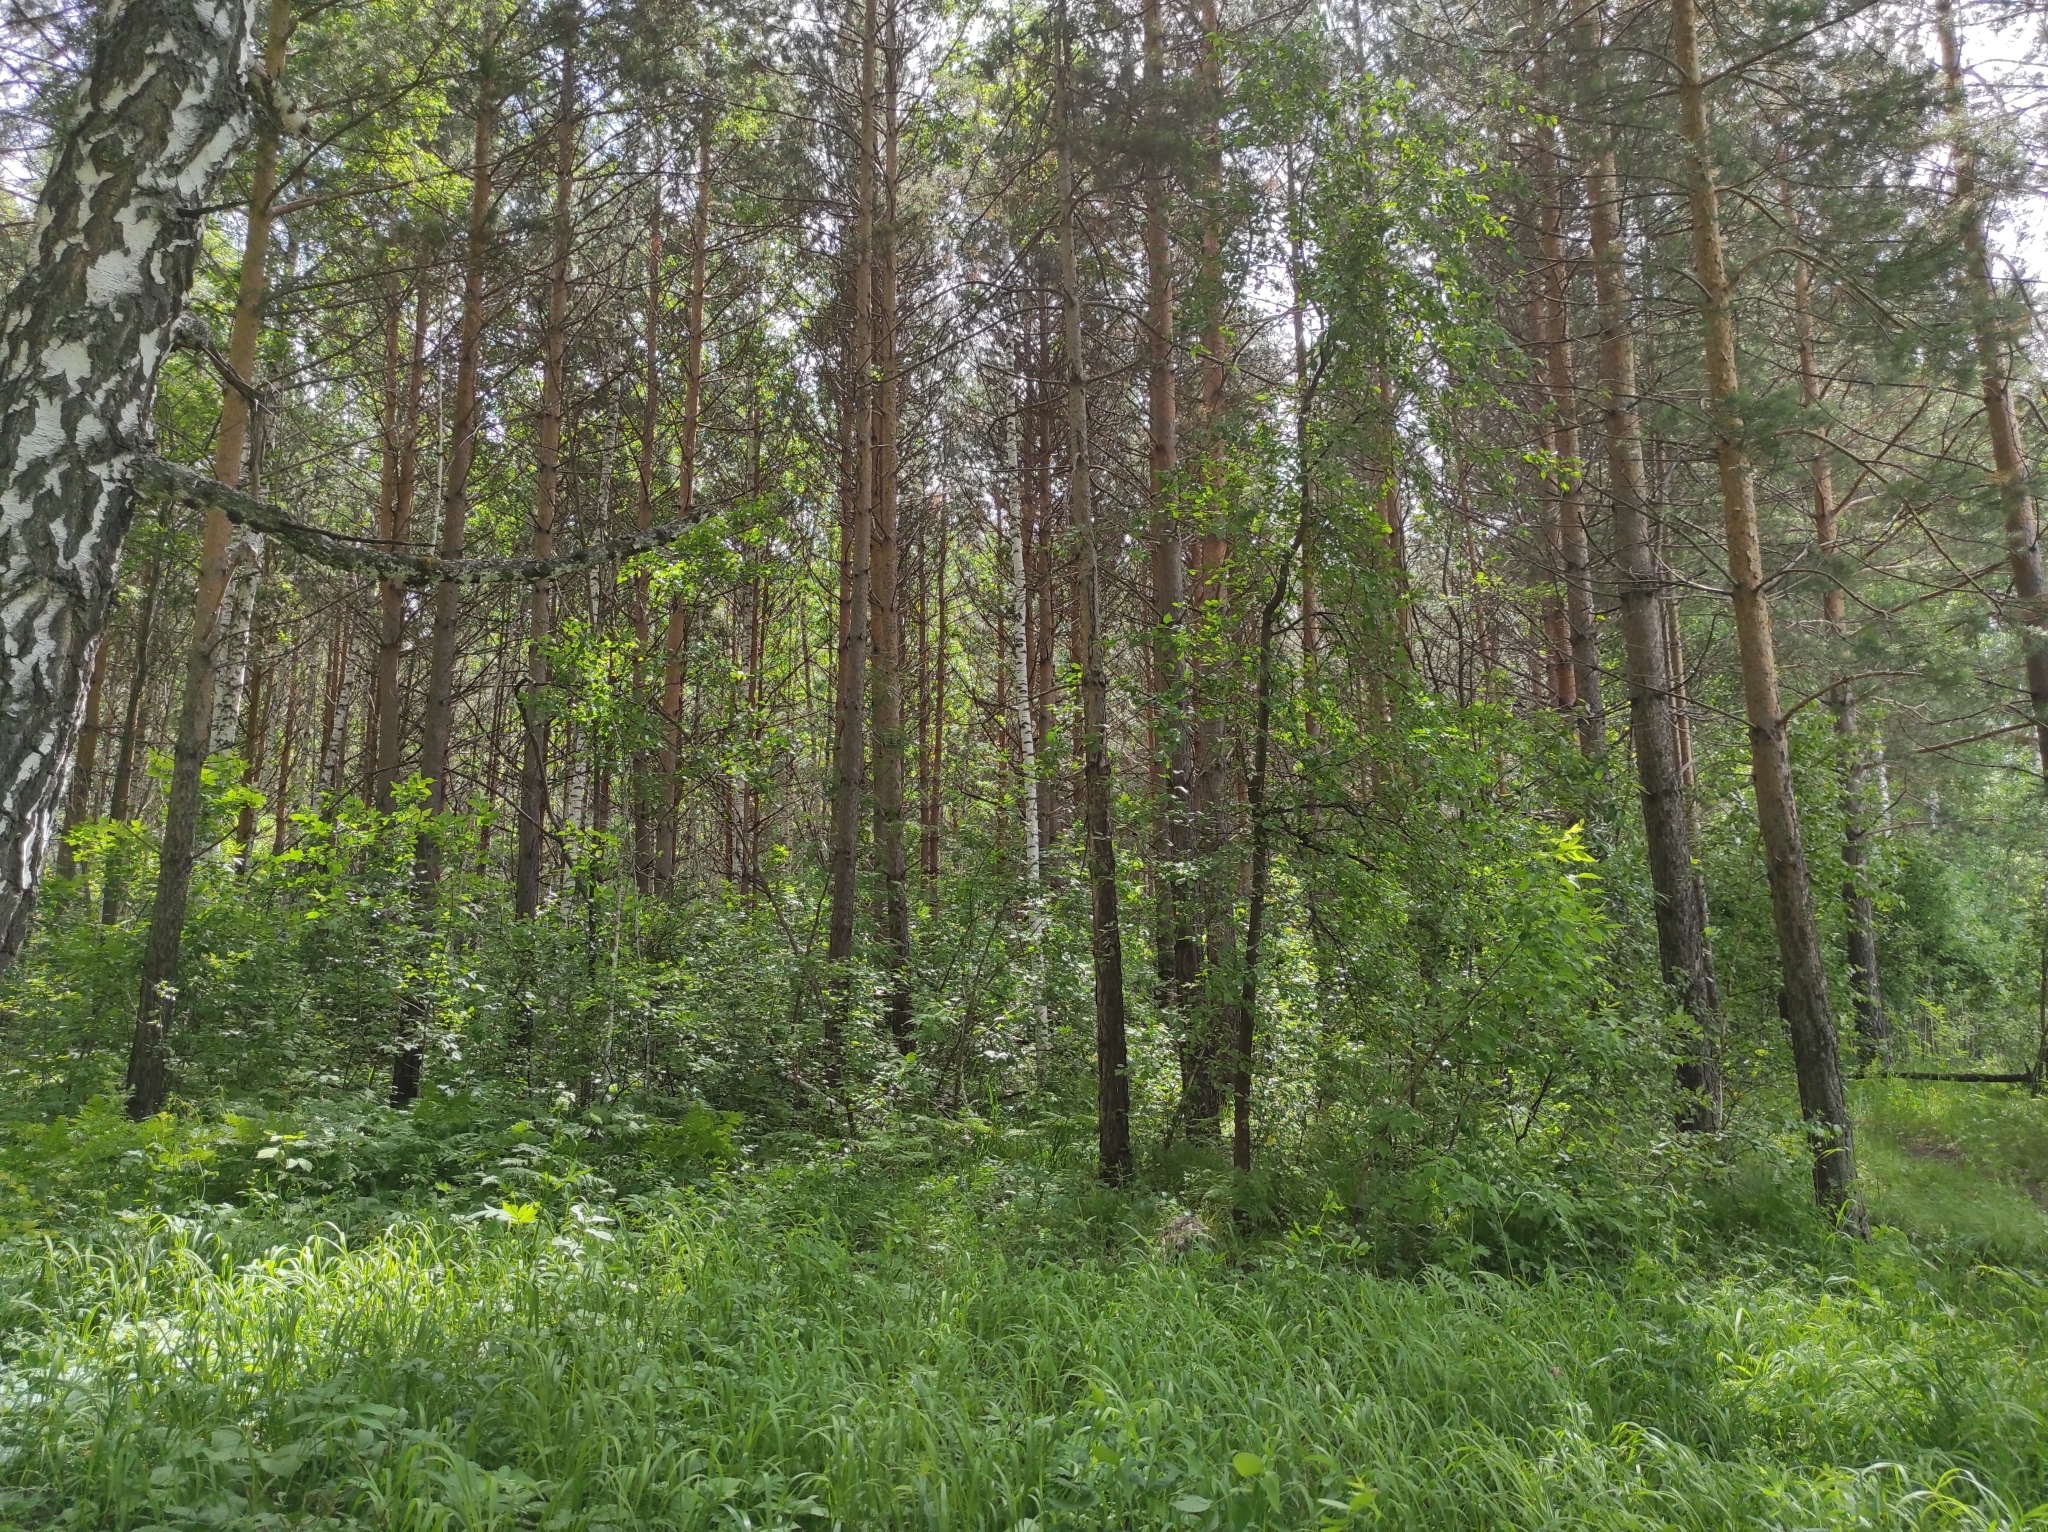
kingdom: Plantae
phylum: Tracheophyta
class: Pinopsida
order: Pinales
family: Pinaceae
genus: Pinus
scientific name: Pinus sylvestris
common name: Scots pine
